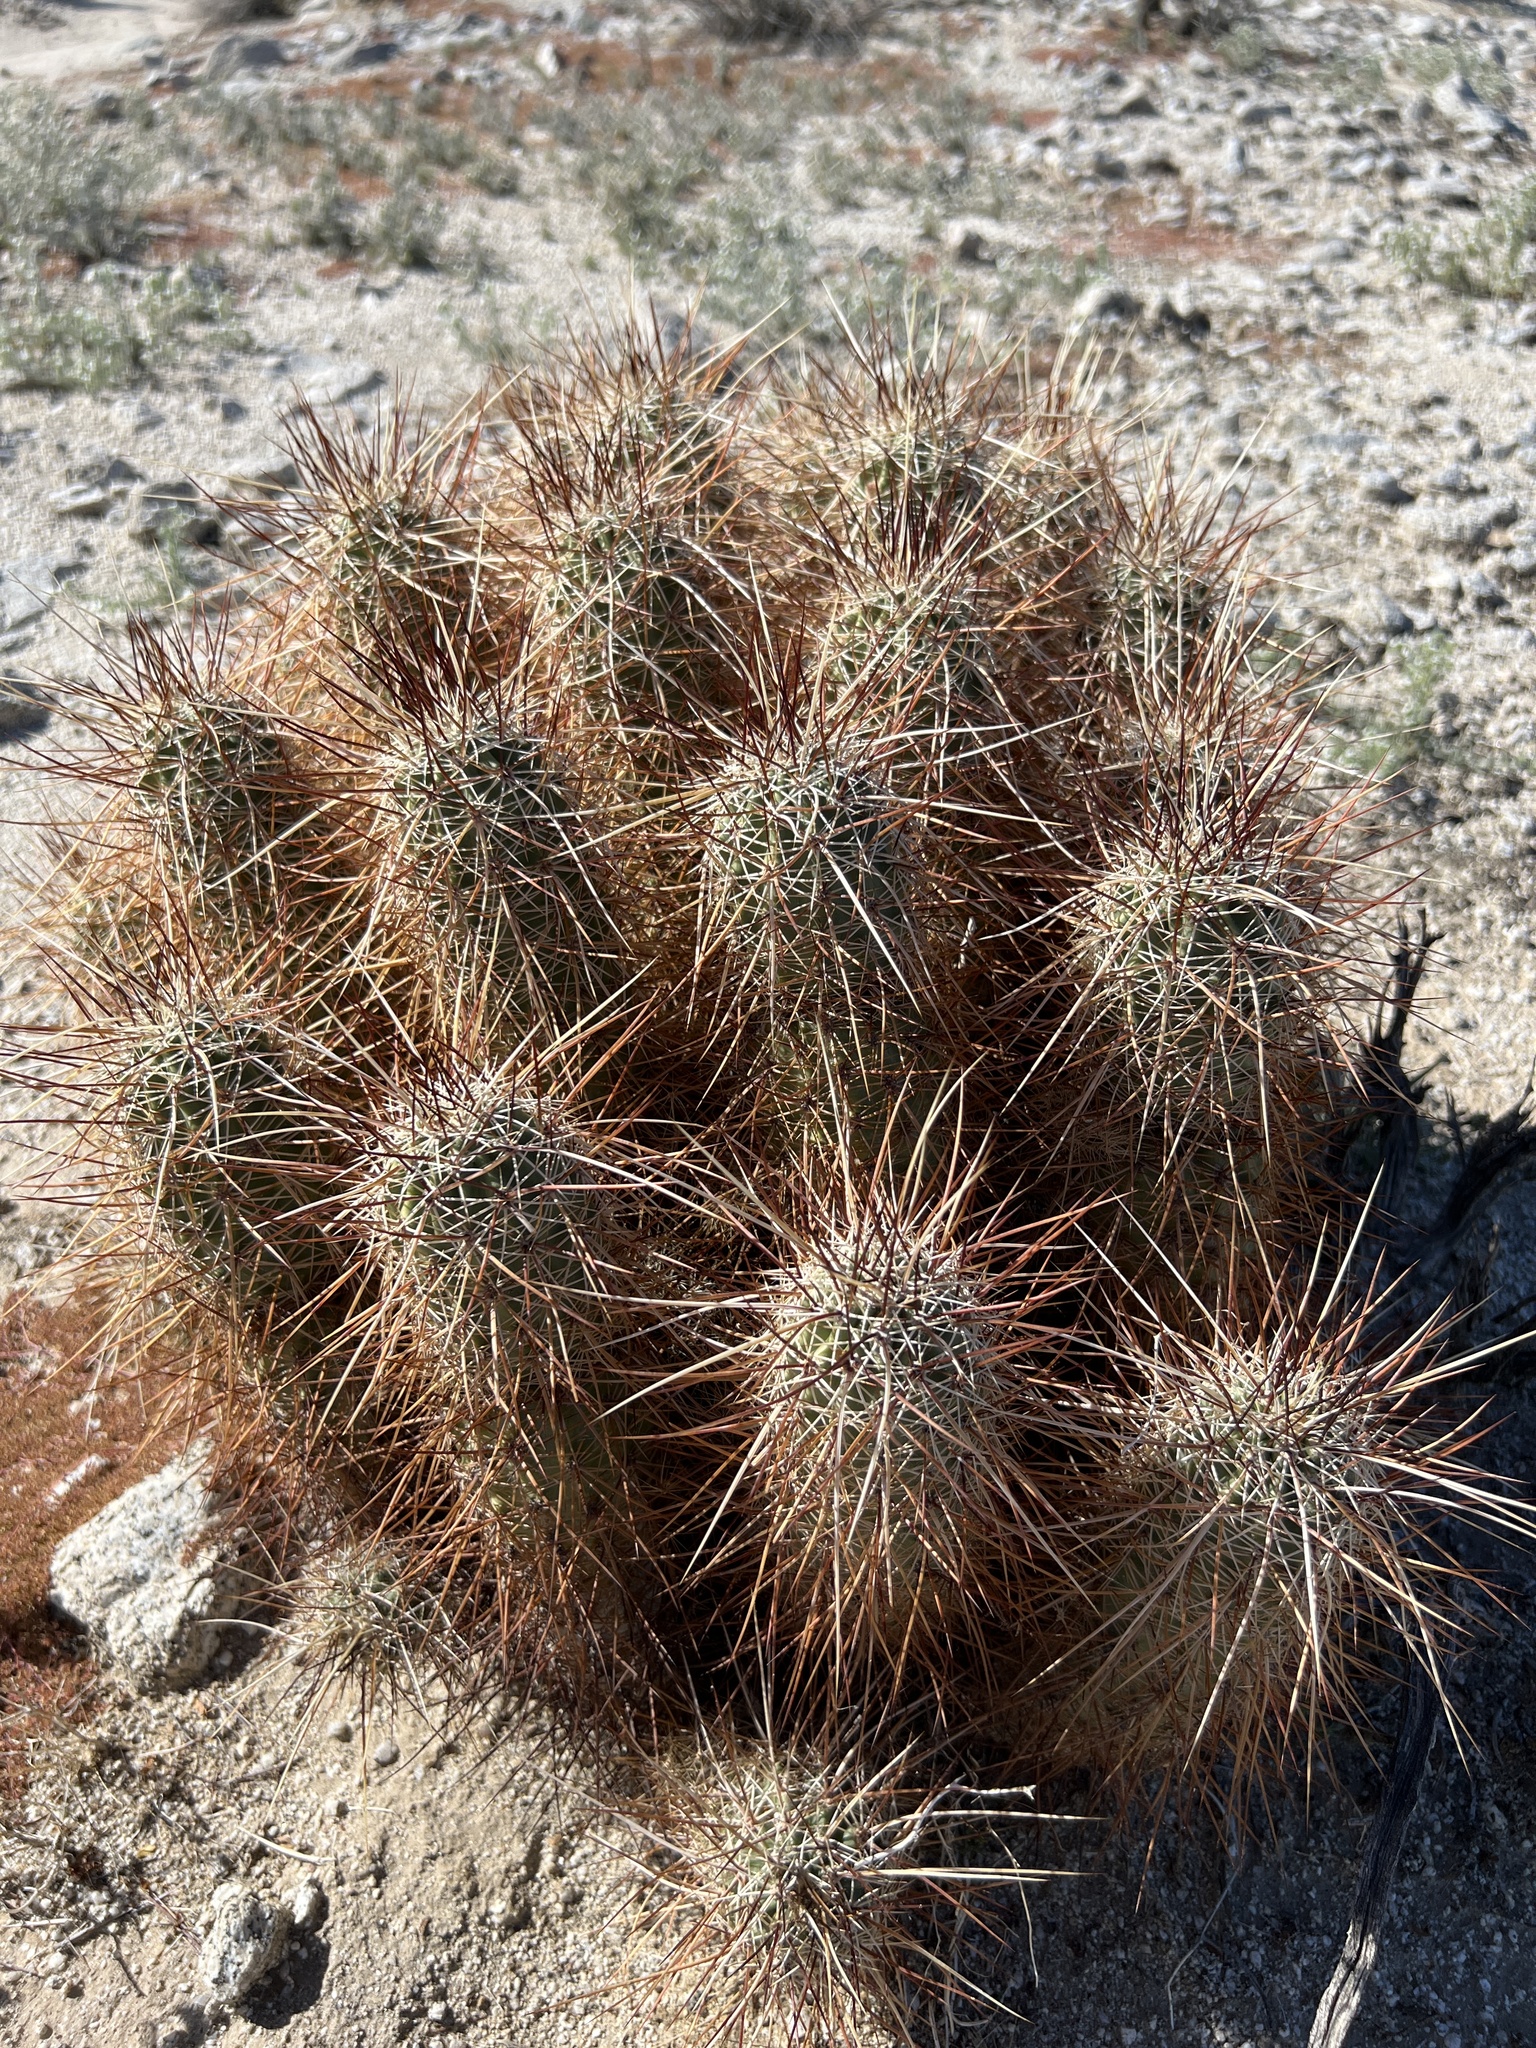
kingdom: Plantae
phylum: Tracheophyta
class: Magnoliopsida
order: Caryophyllales
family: Cactaceae
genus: Echinocereus
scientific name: Echinocereus engelmannii
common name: Engelmann's hedgehog cactus
